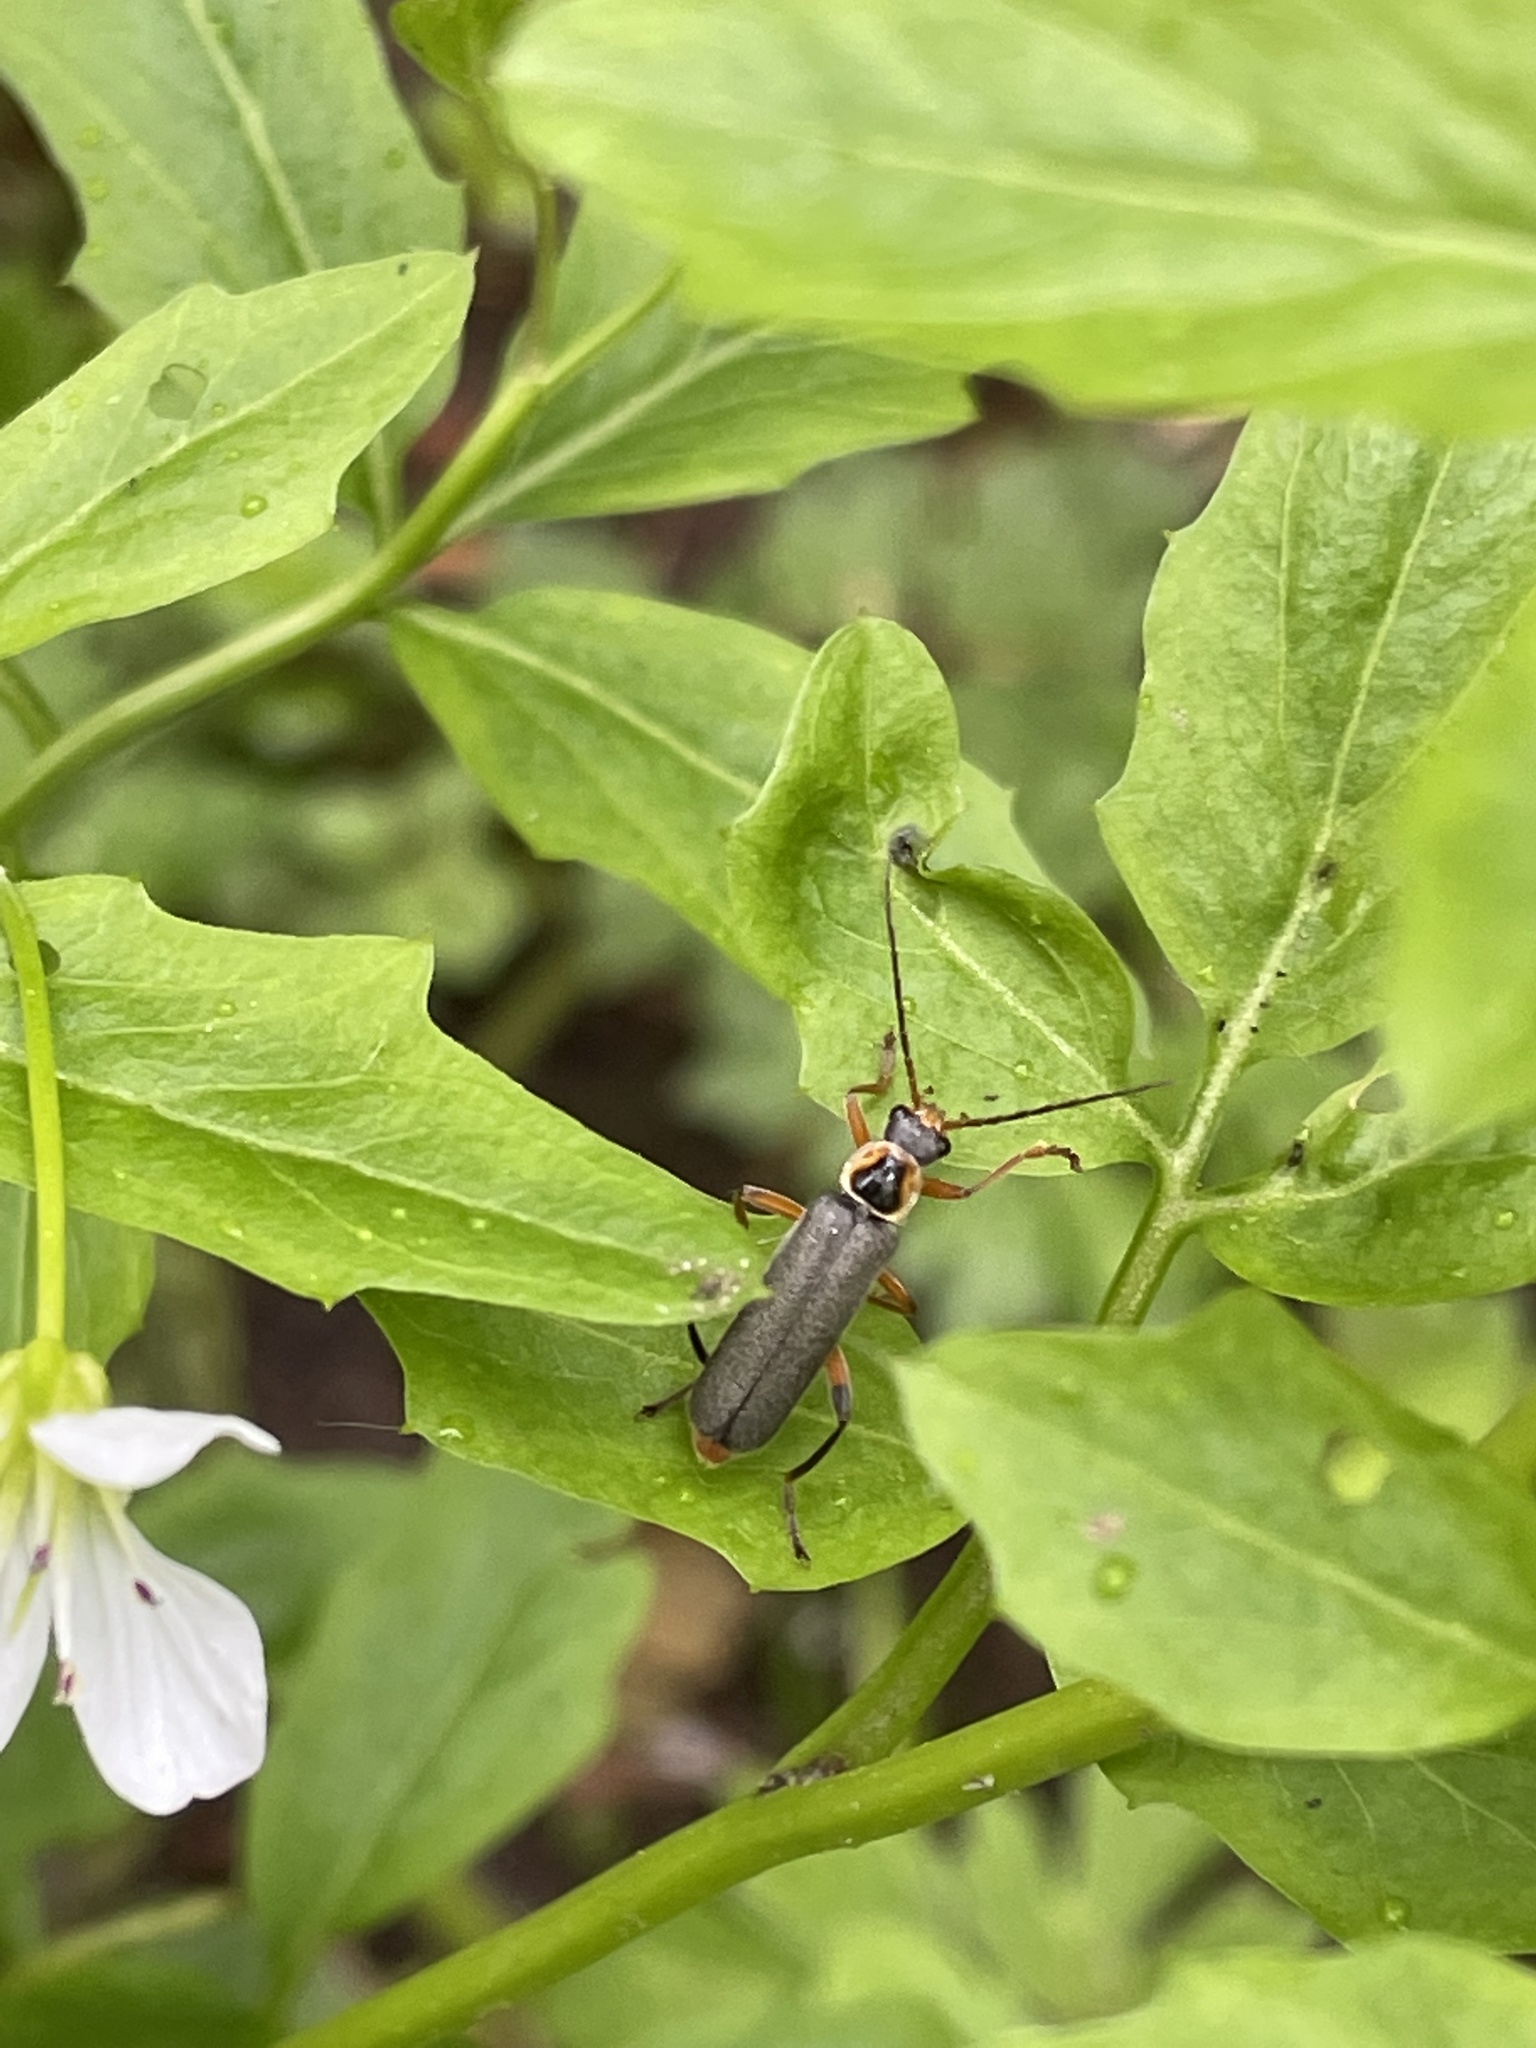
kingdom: Animalia
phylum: Arthropoda
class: Insecta
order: Coleoptera
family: Cantharidae
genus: Cantharis
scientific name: Cantharis nigricans
